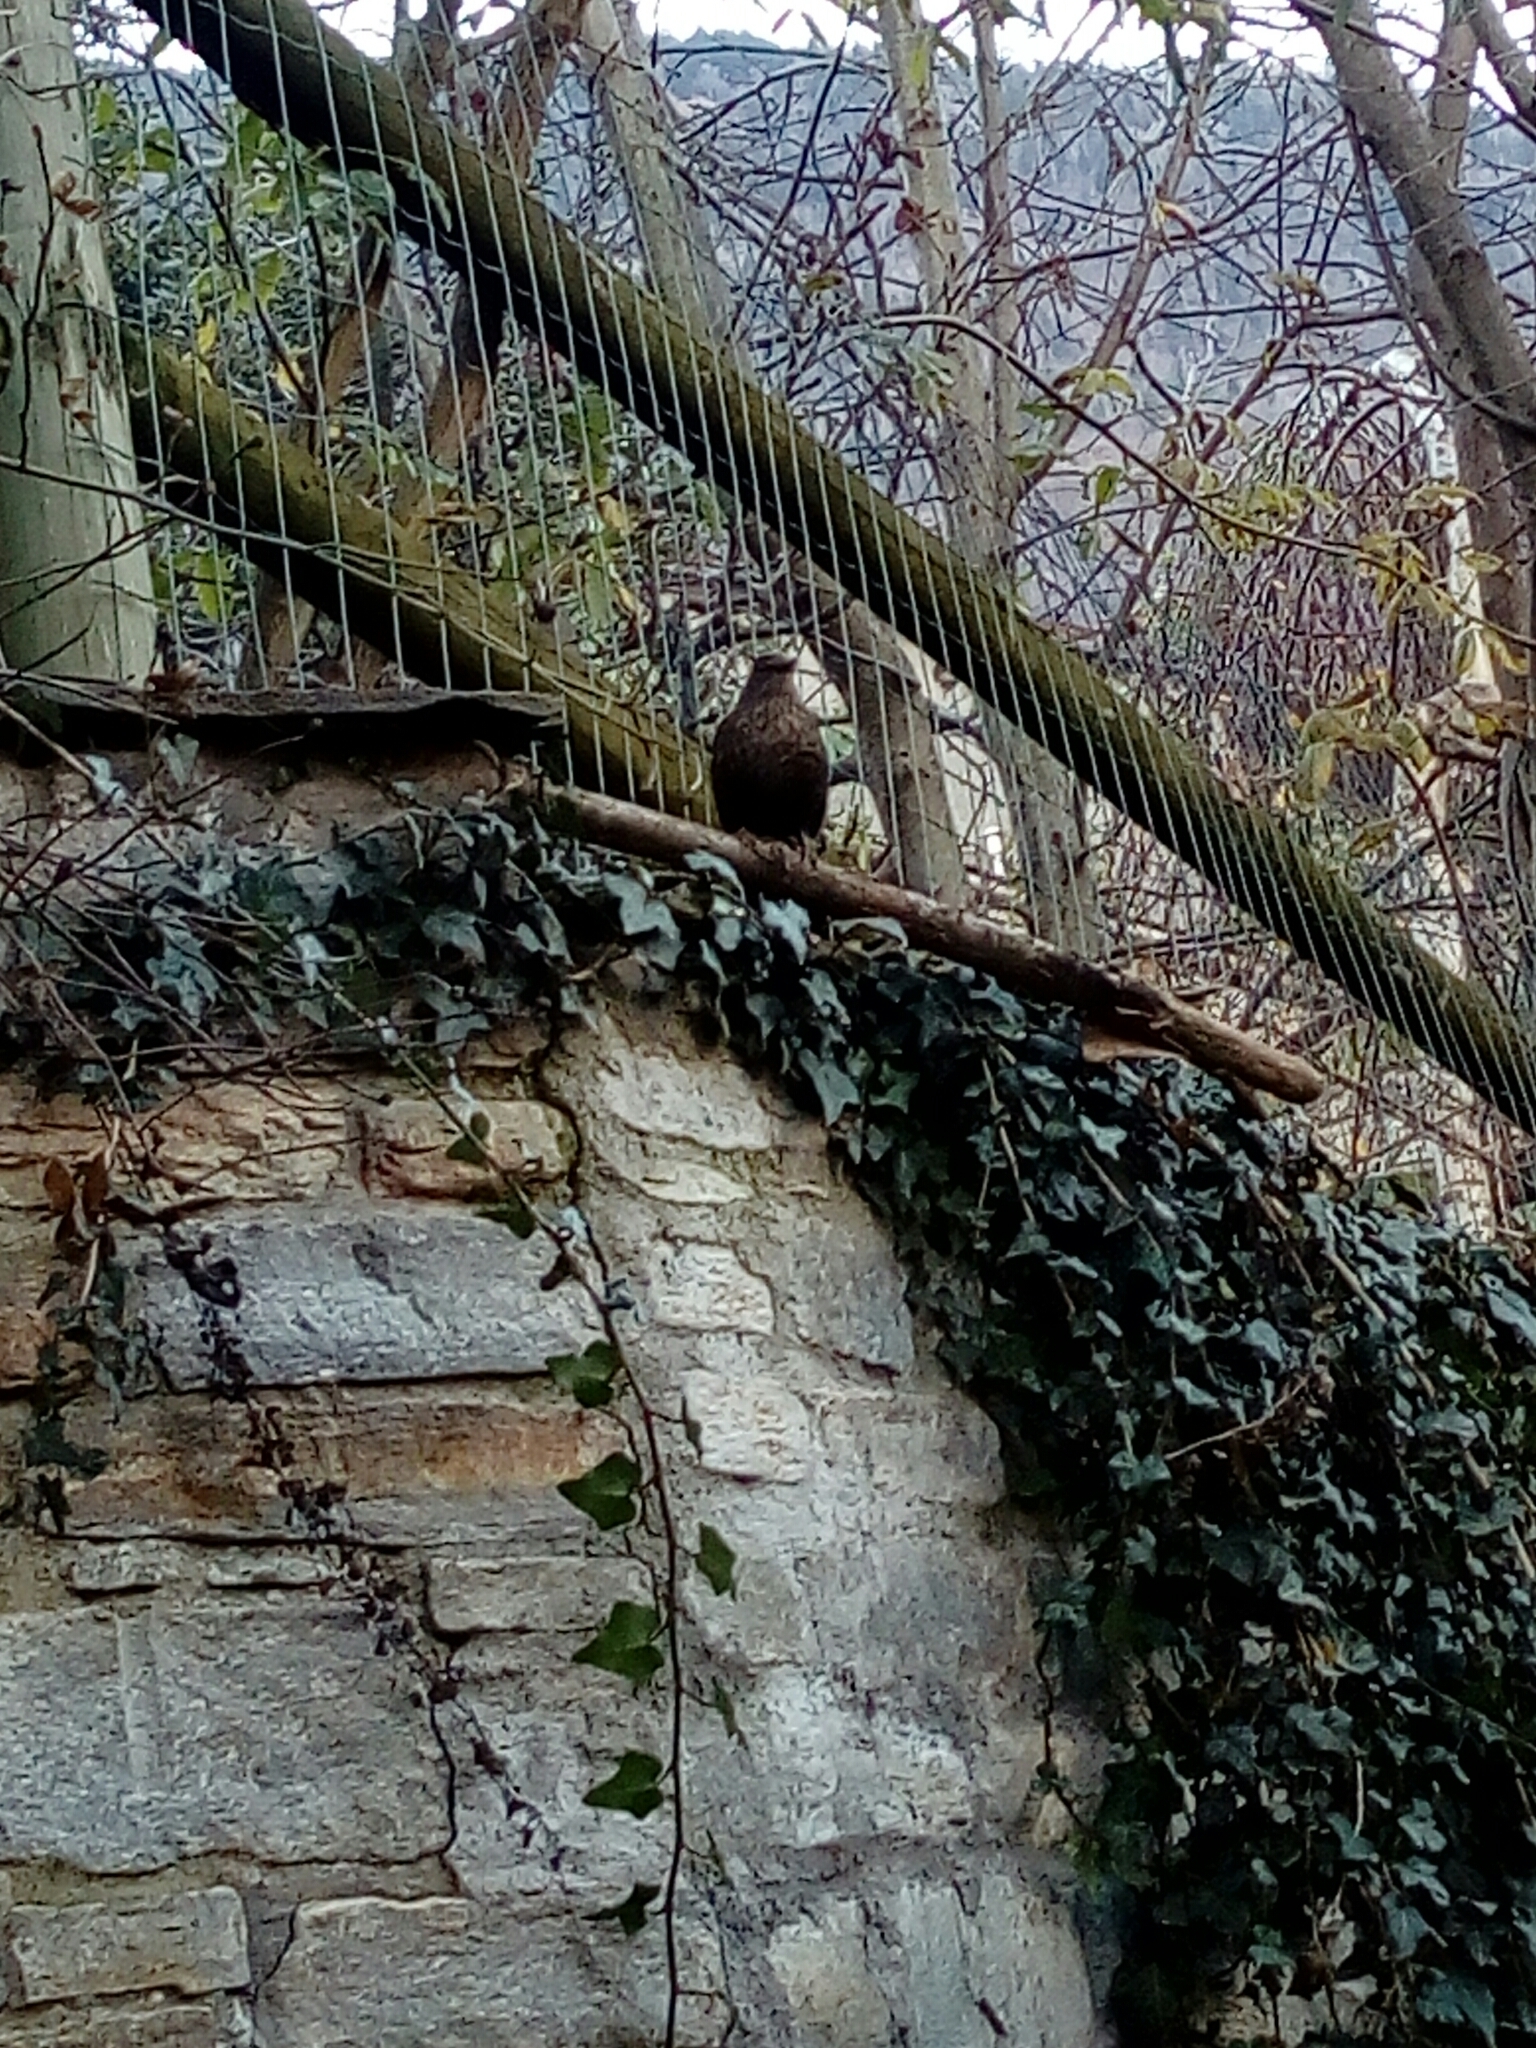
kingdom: Animalia
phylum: Chordata
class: Aves
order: Passeriformes
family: Turdidae
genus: Turdus
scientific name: Turdus merula
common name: Common blackbird
